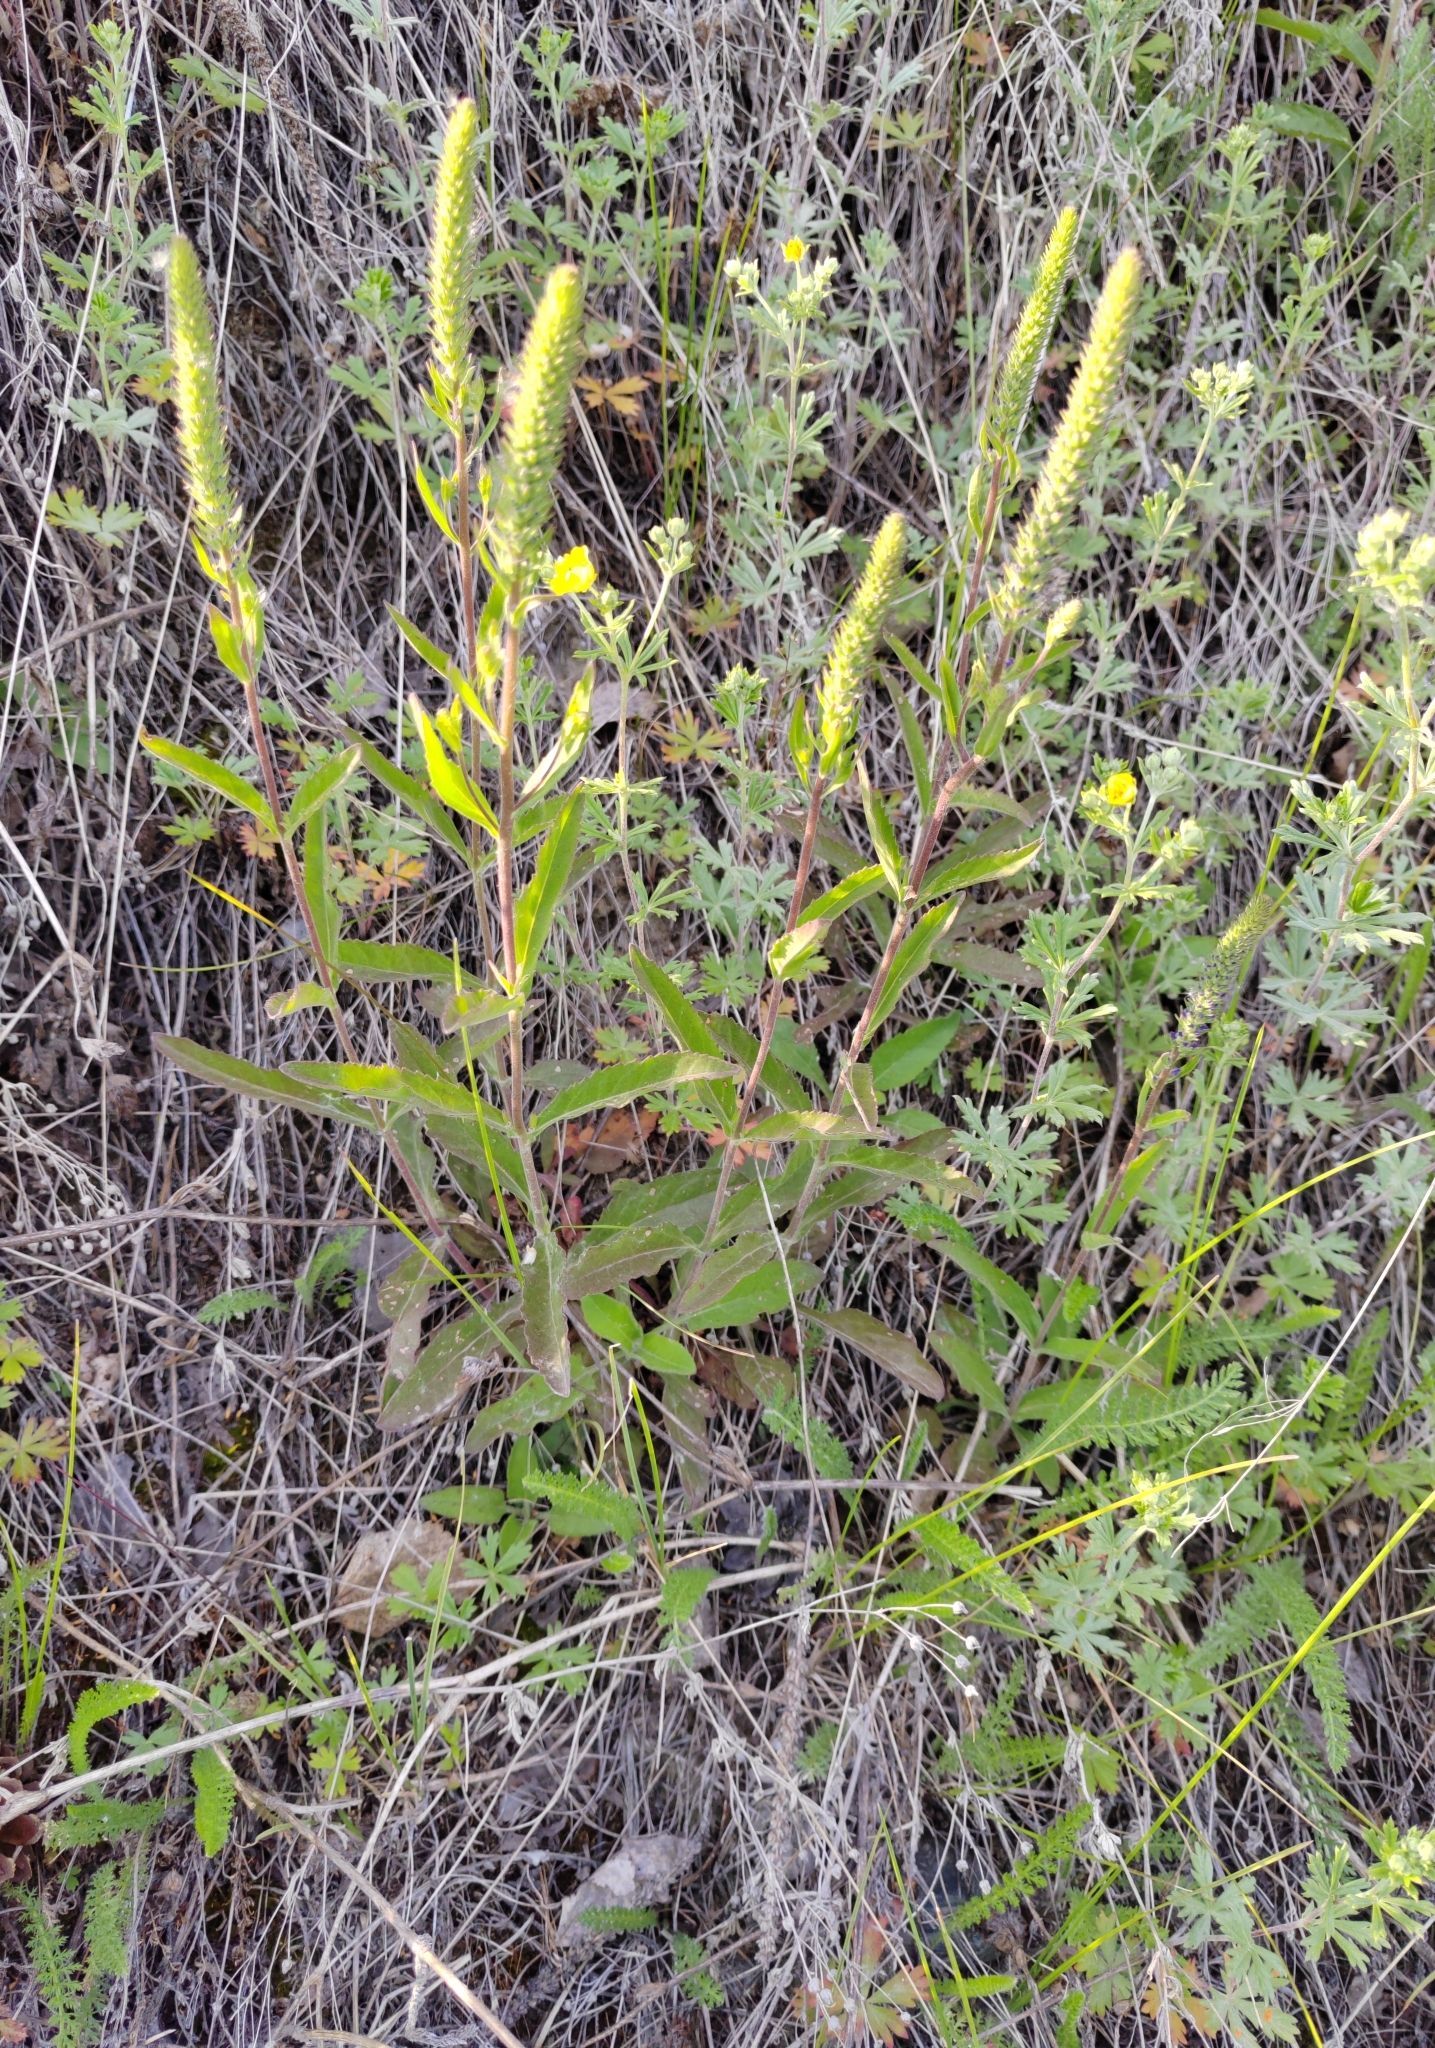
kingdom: Plantae
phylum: Tracheophyta
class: Magnoliopsida
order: Lamiales
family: Plantaginaceae
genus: Veronica
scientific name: Veronica spicata
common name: Spiked speedwell
